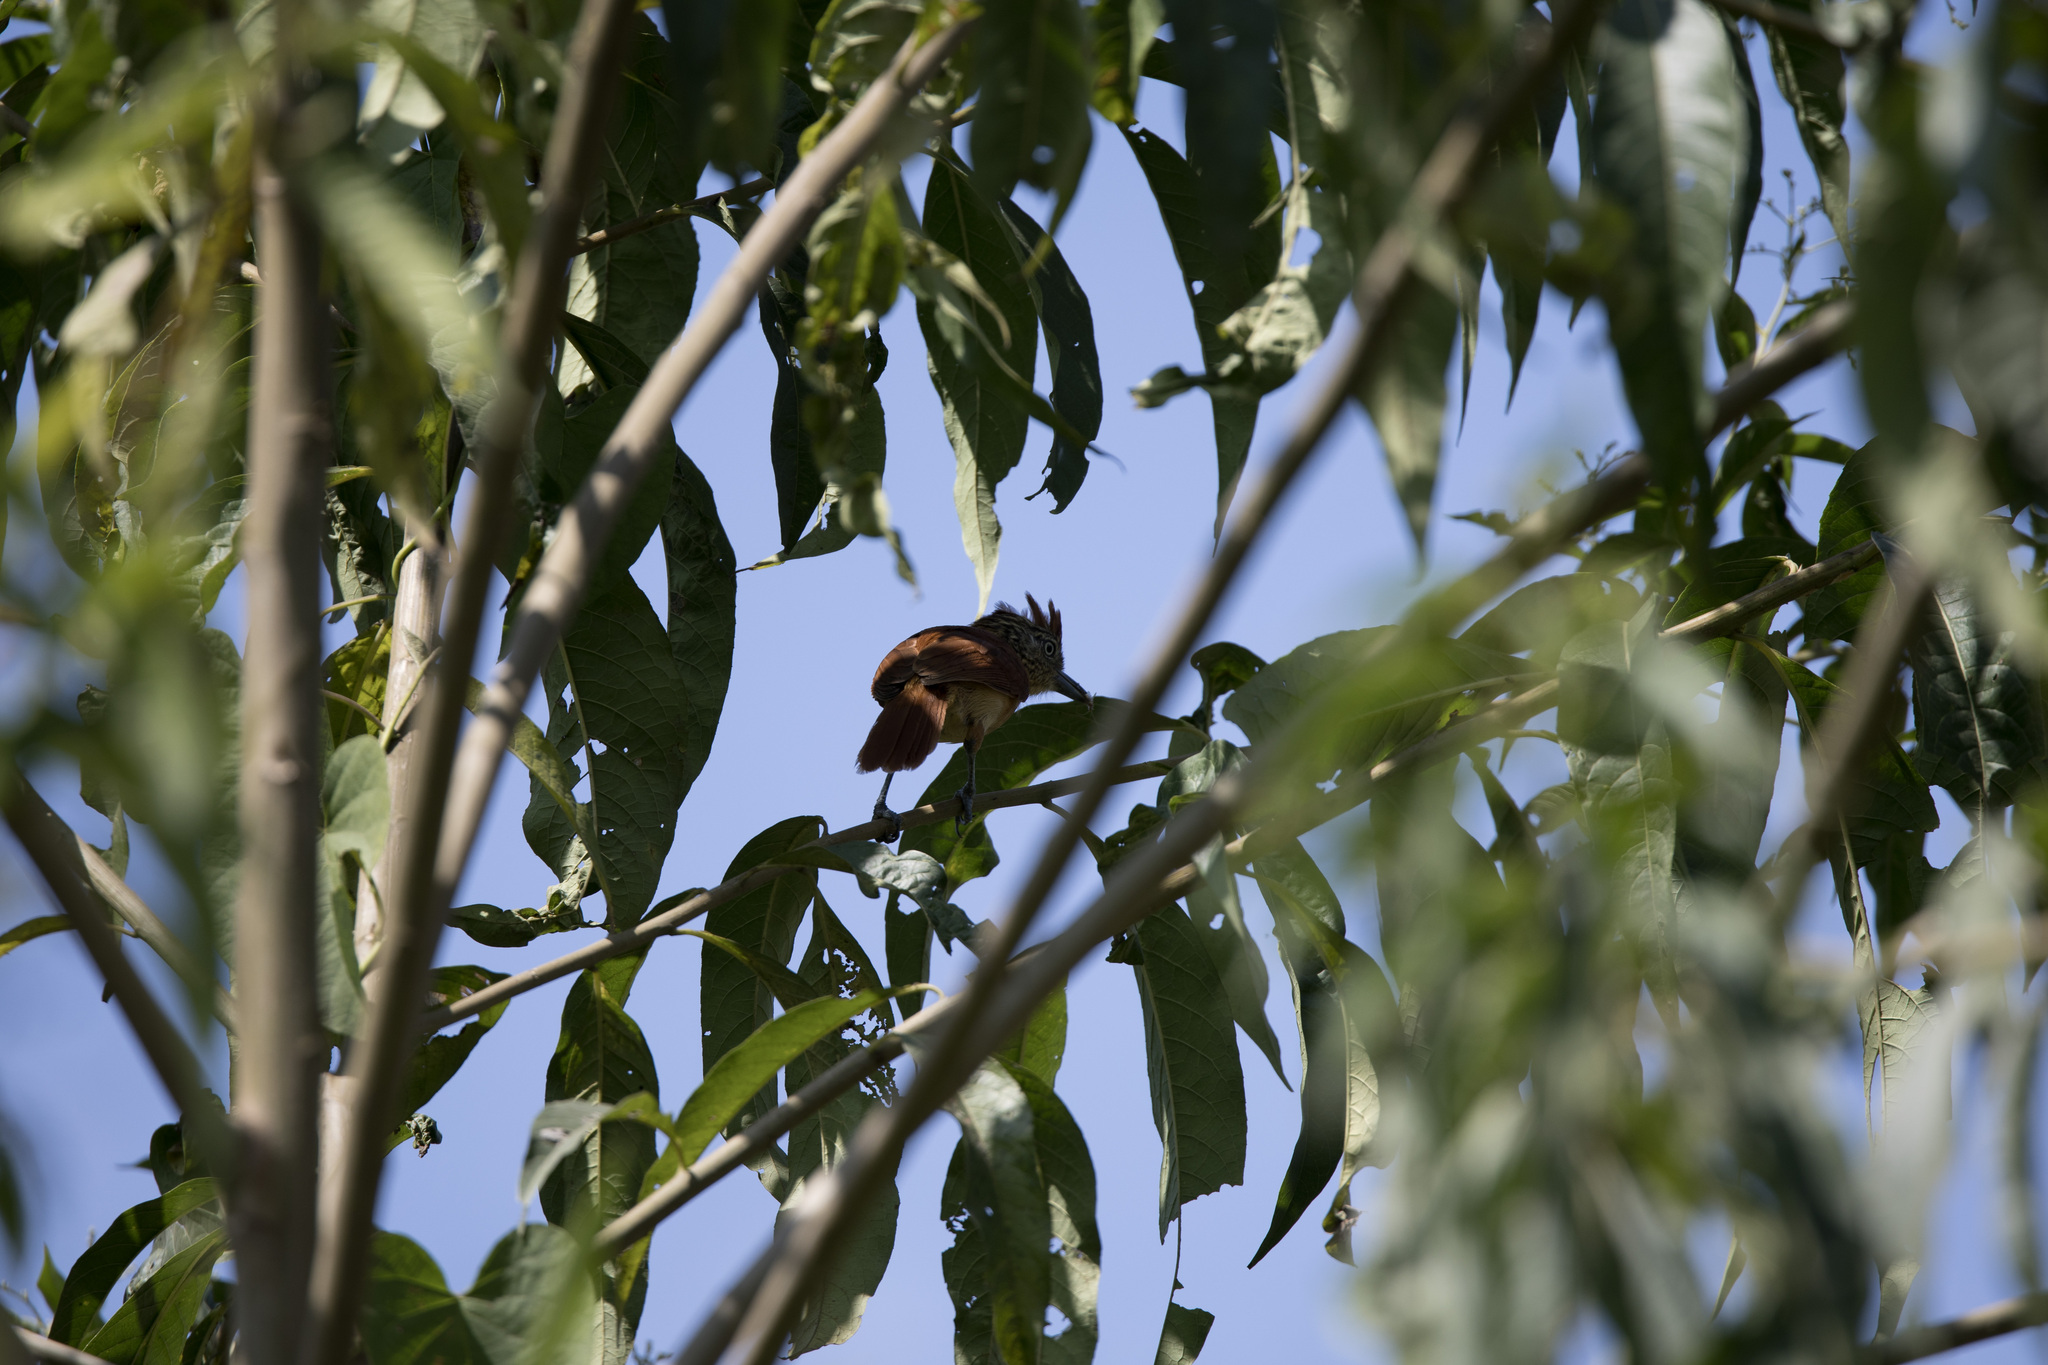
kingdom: Animalia
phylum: Chordata
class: Aves
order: Passeriformes
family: Thamnophilidae
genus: Thamnophilus
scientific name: Thamnophilus doliatus
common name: Barred antshrike
